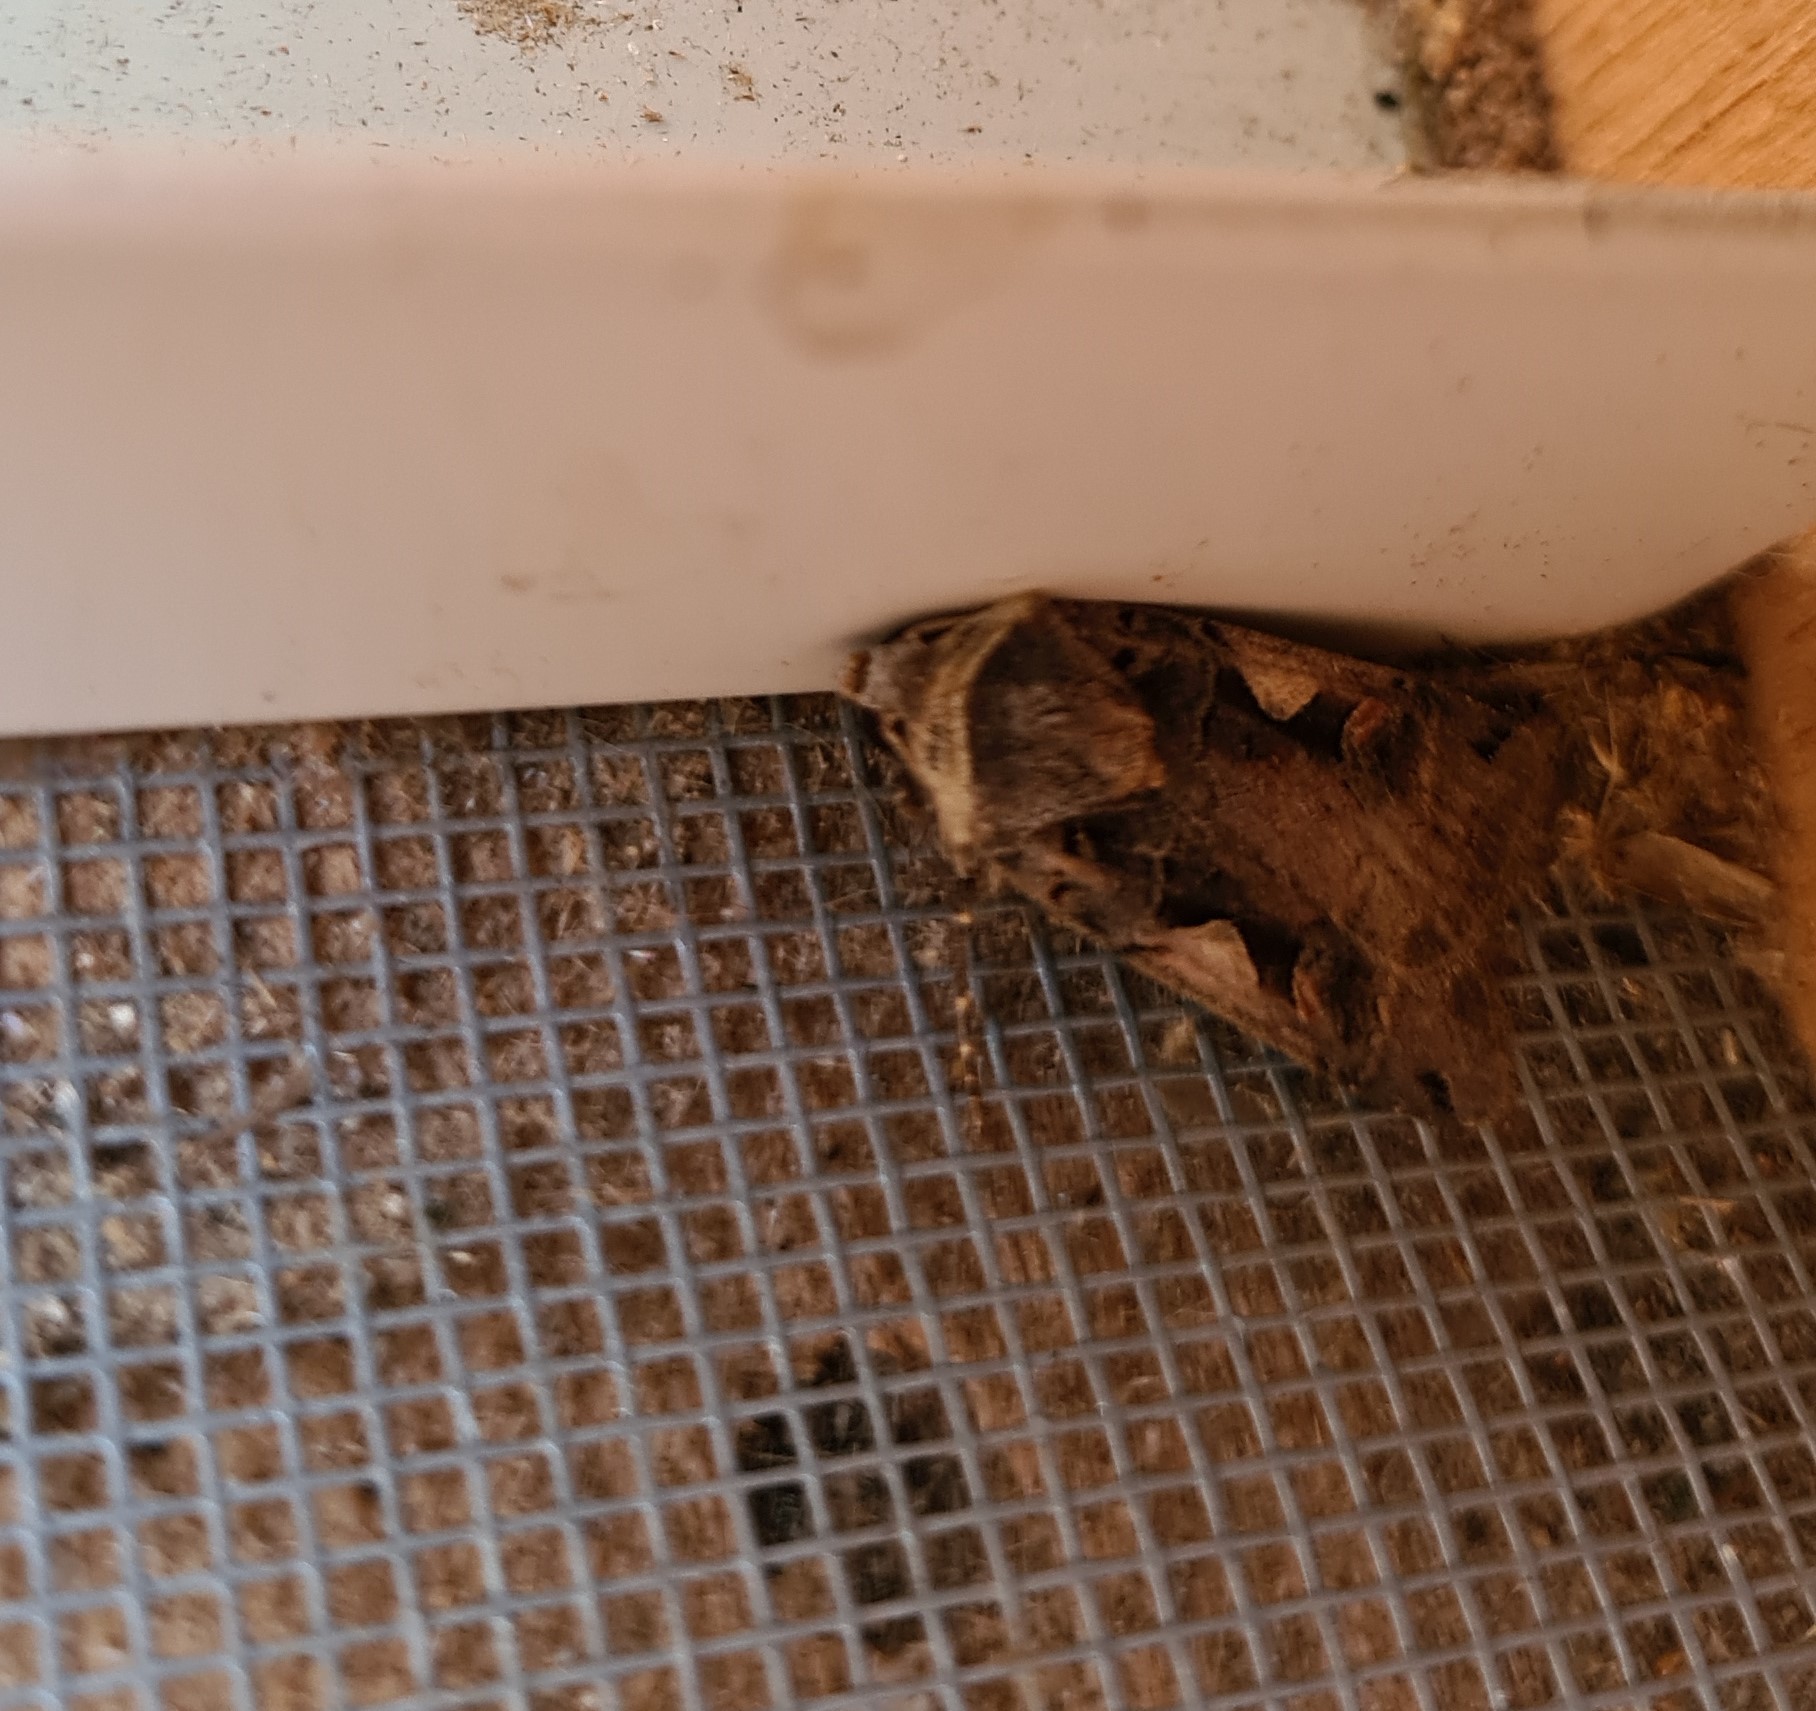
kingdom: Animalia
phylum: Arthropoda
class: Insecta
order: Lepidoptera
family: Noctuidae
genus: Xestia
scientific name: Xestia c-nigrum
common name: Setaceous hebrew character
